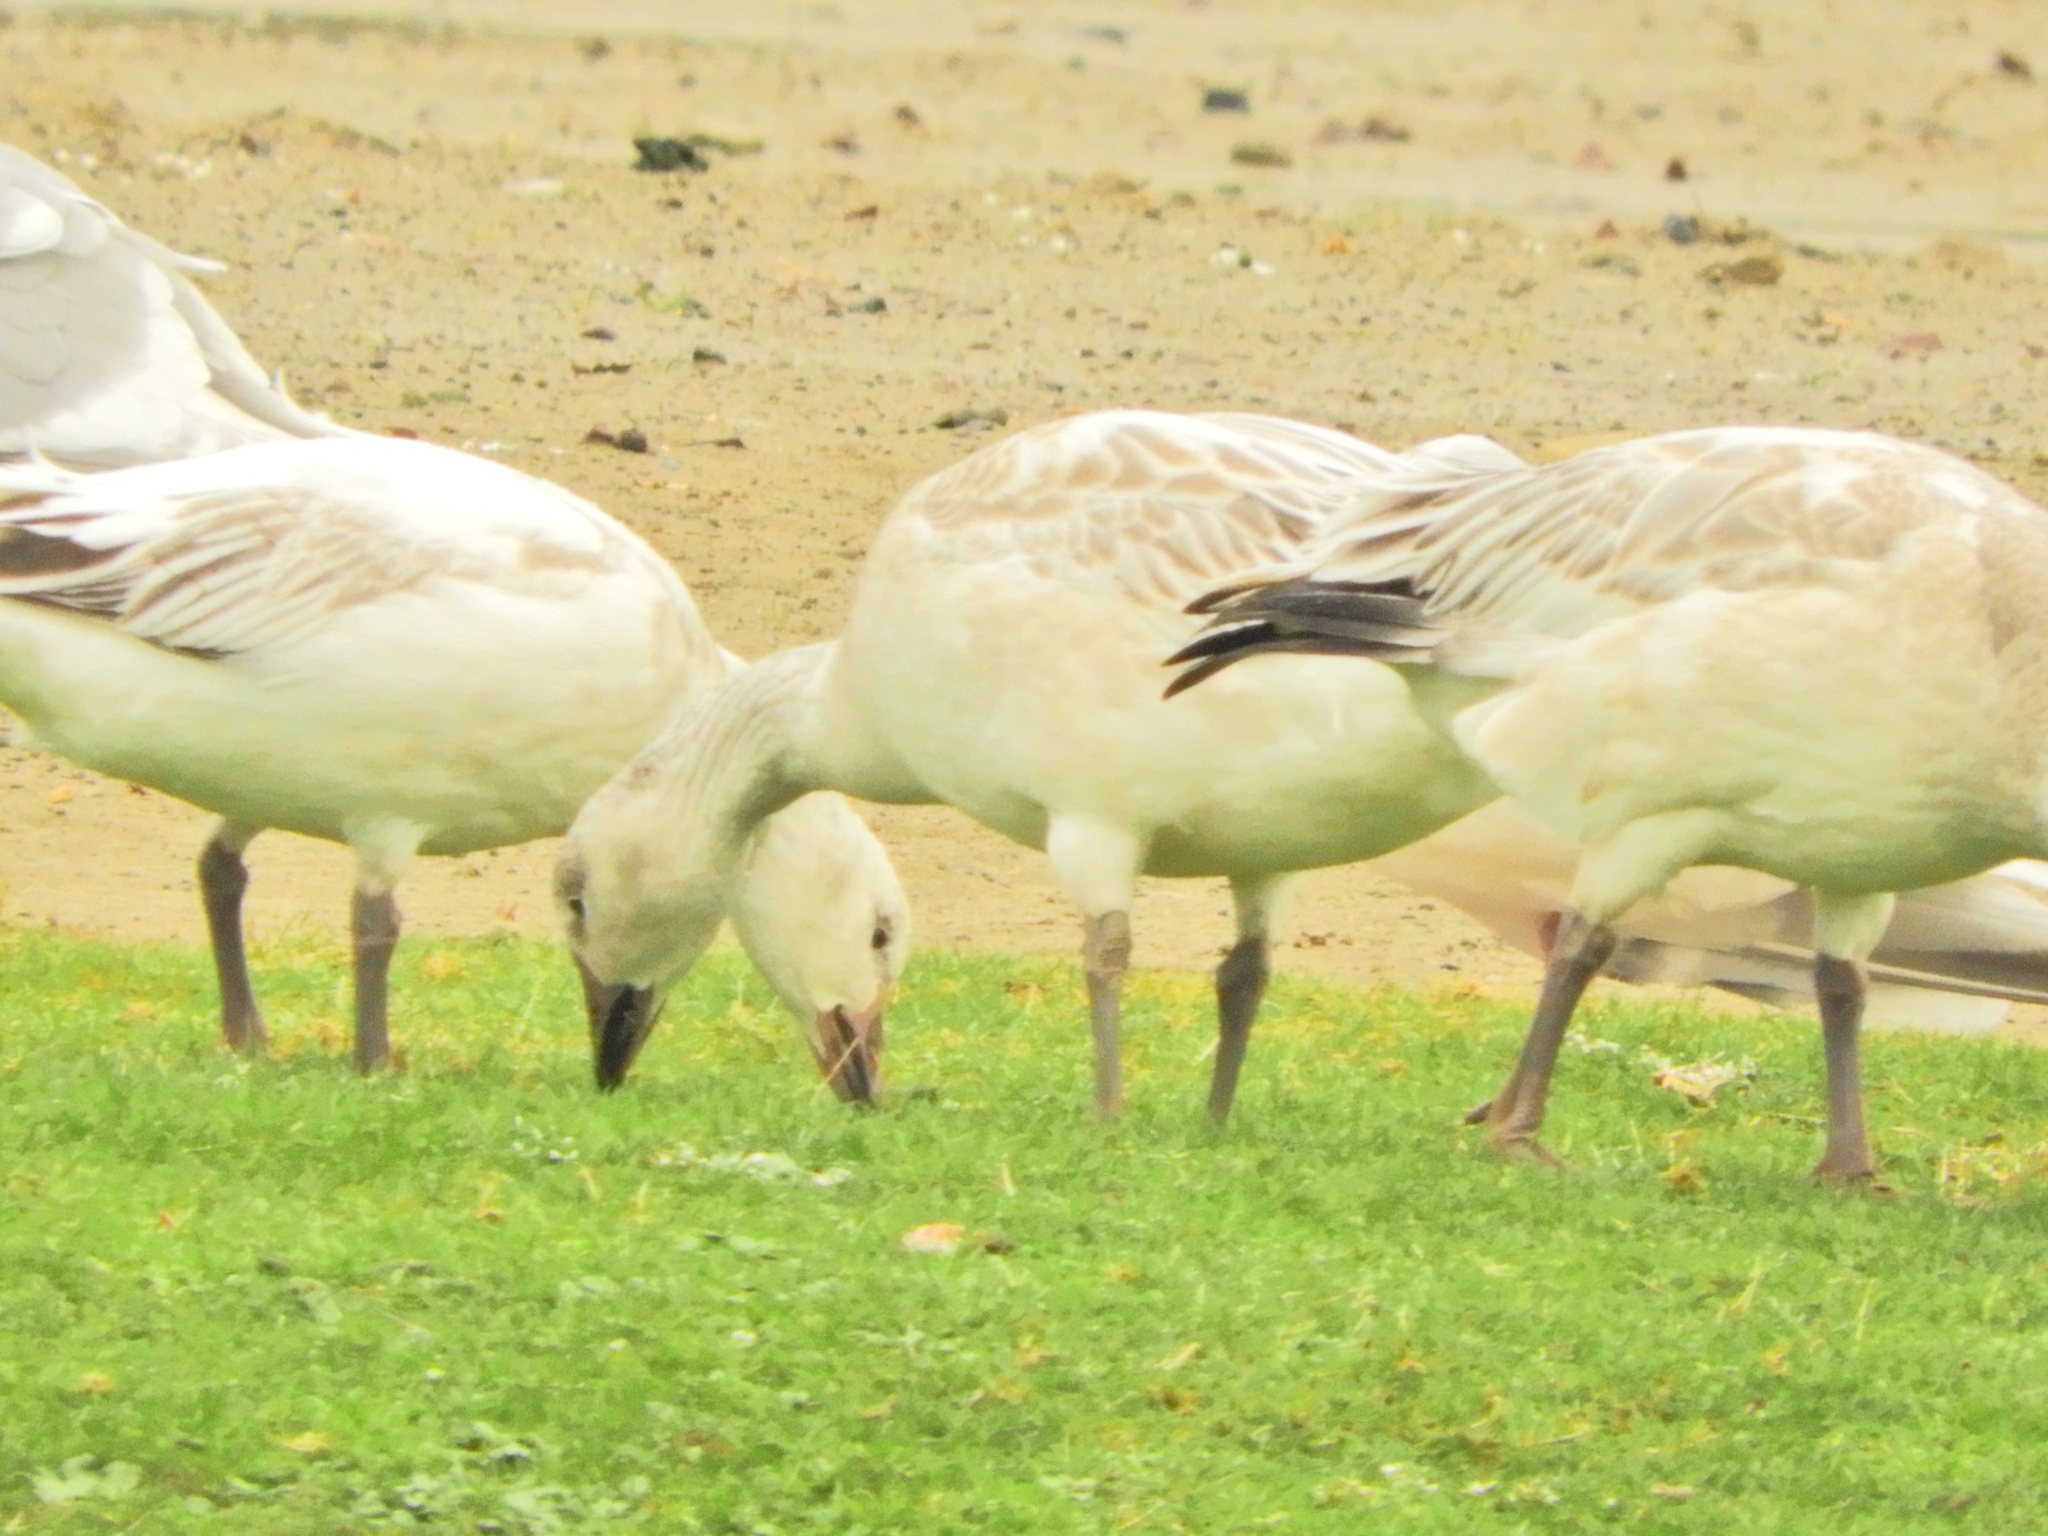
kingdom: Animalia
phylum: Chordata
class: Aves
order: Anseriformes
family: Anatidae
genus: Anser
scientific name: Anser caerulescens
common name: Snow goose
